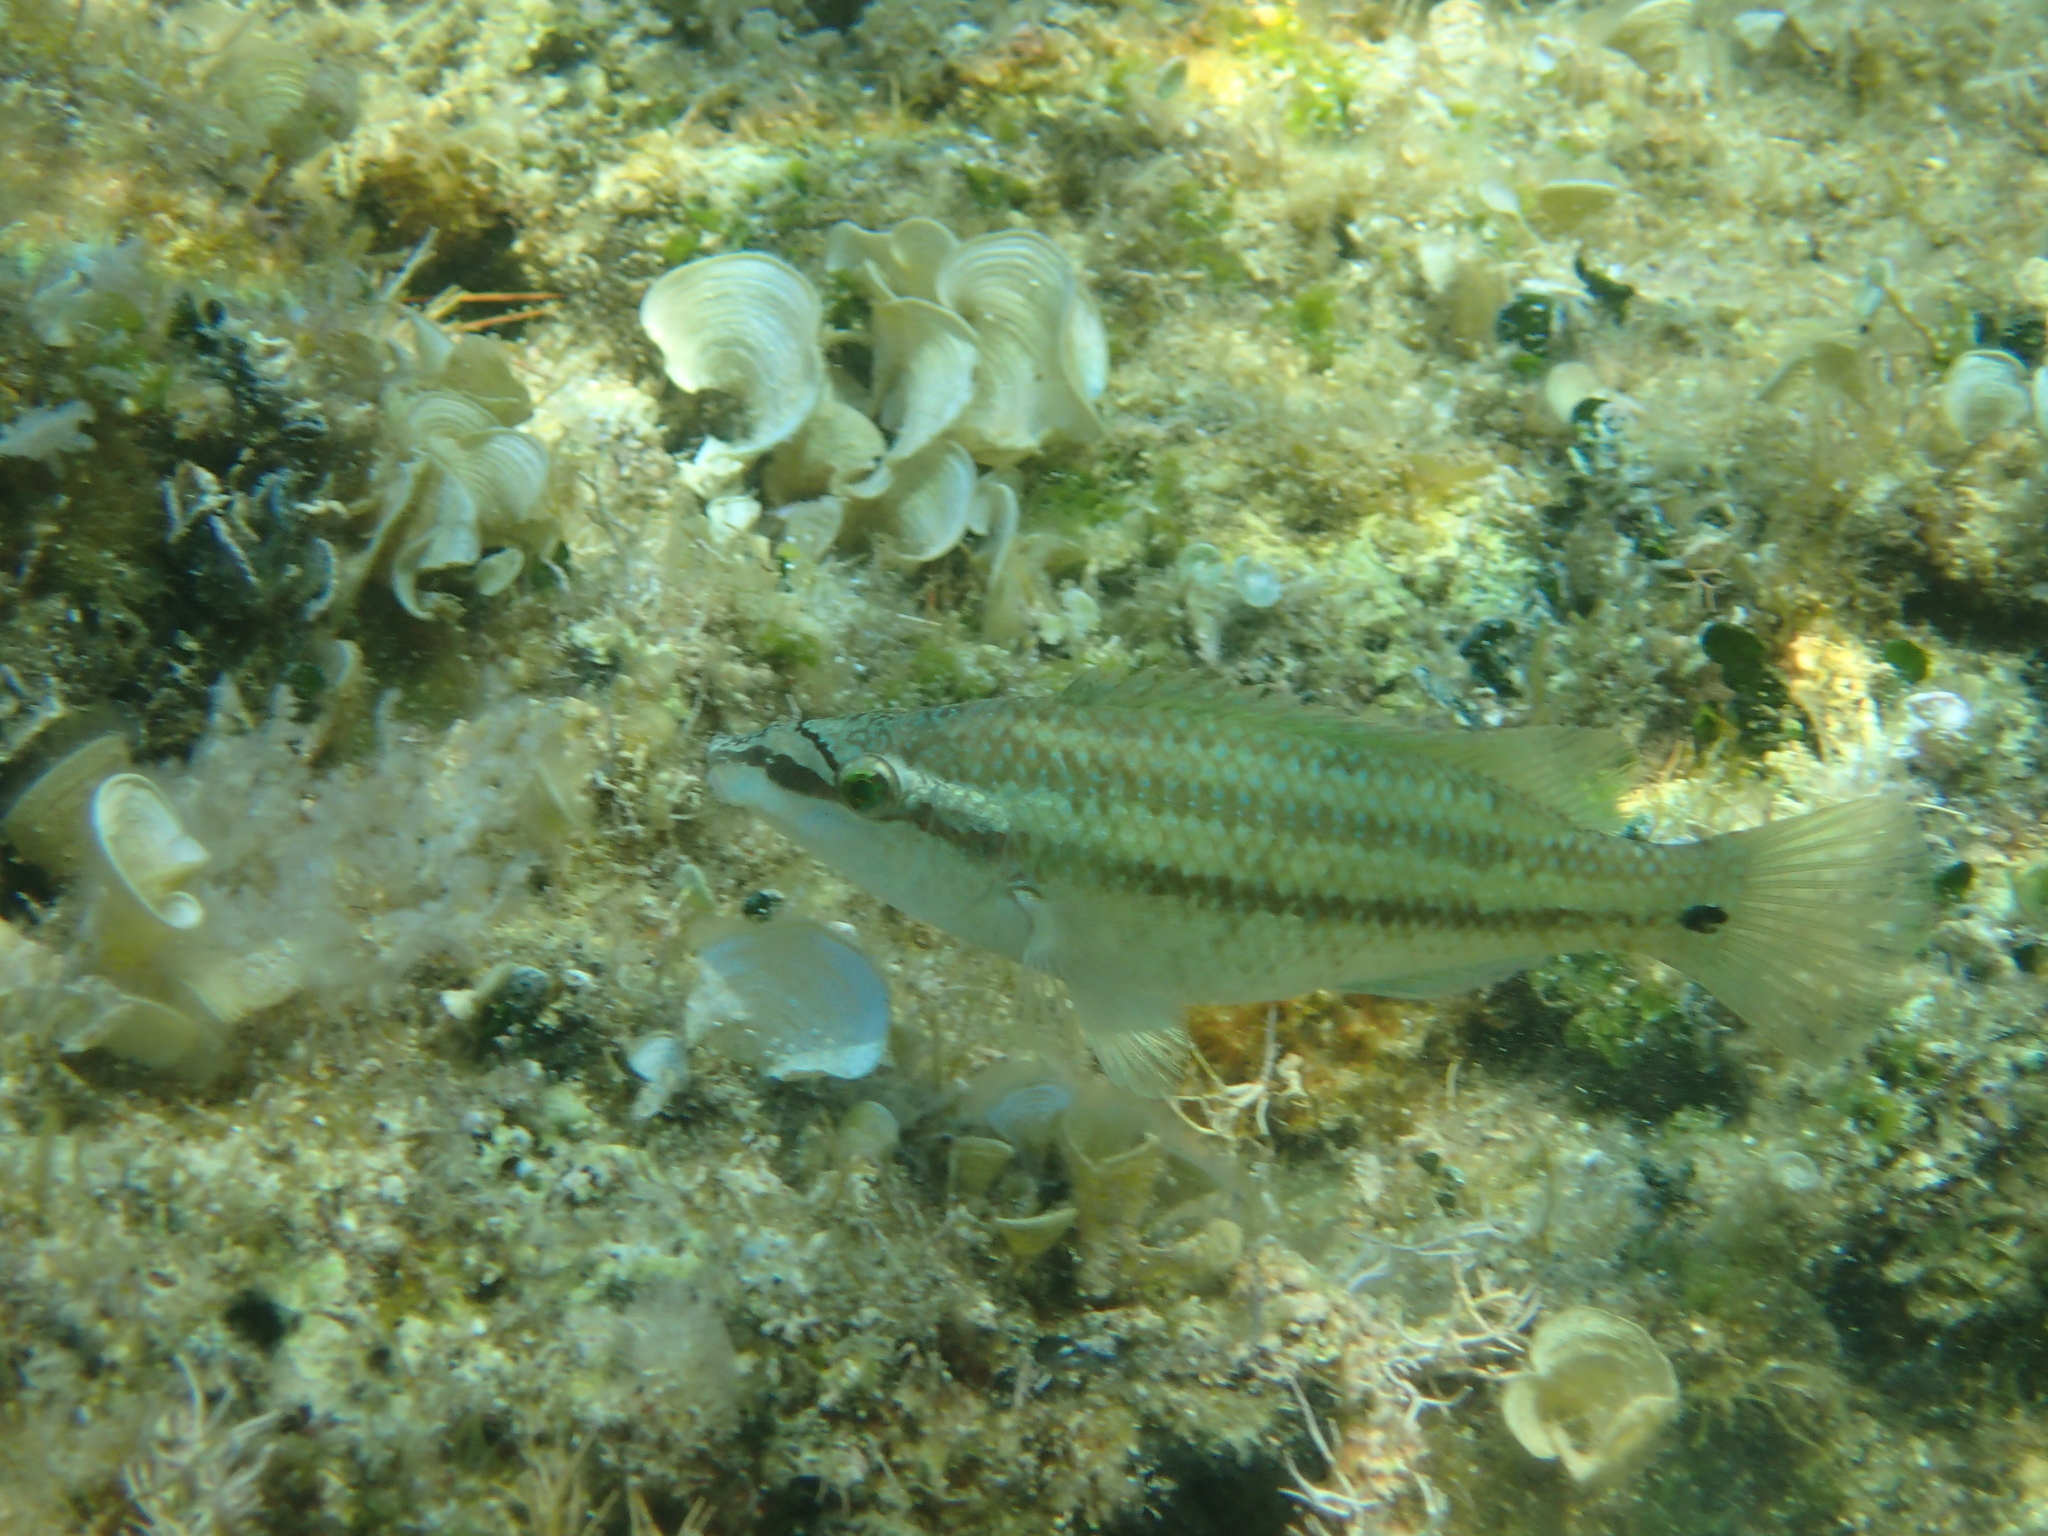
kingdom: Animalia
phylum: Chordata
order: Perciformes
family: Labridae
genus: Symphodus
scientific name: Symphodus tinca
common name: Peacock wrasse
